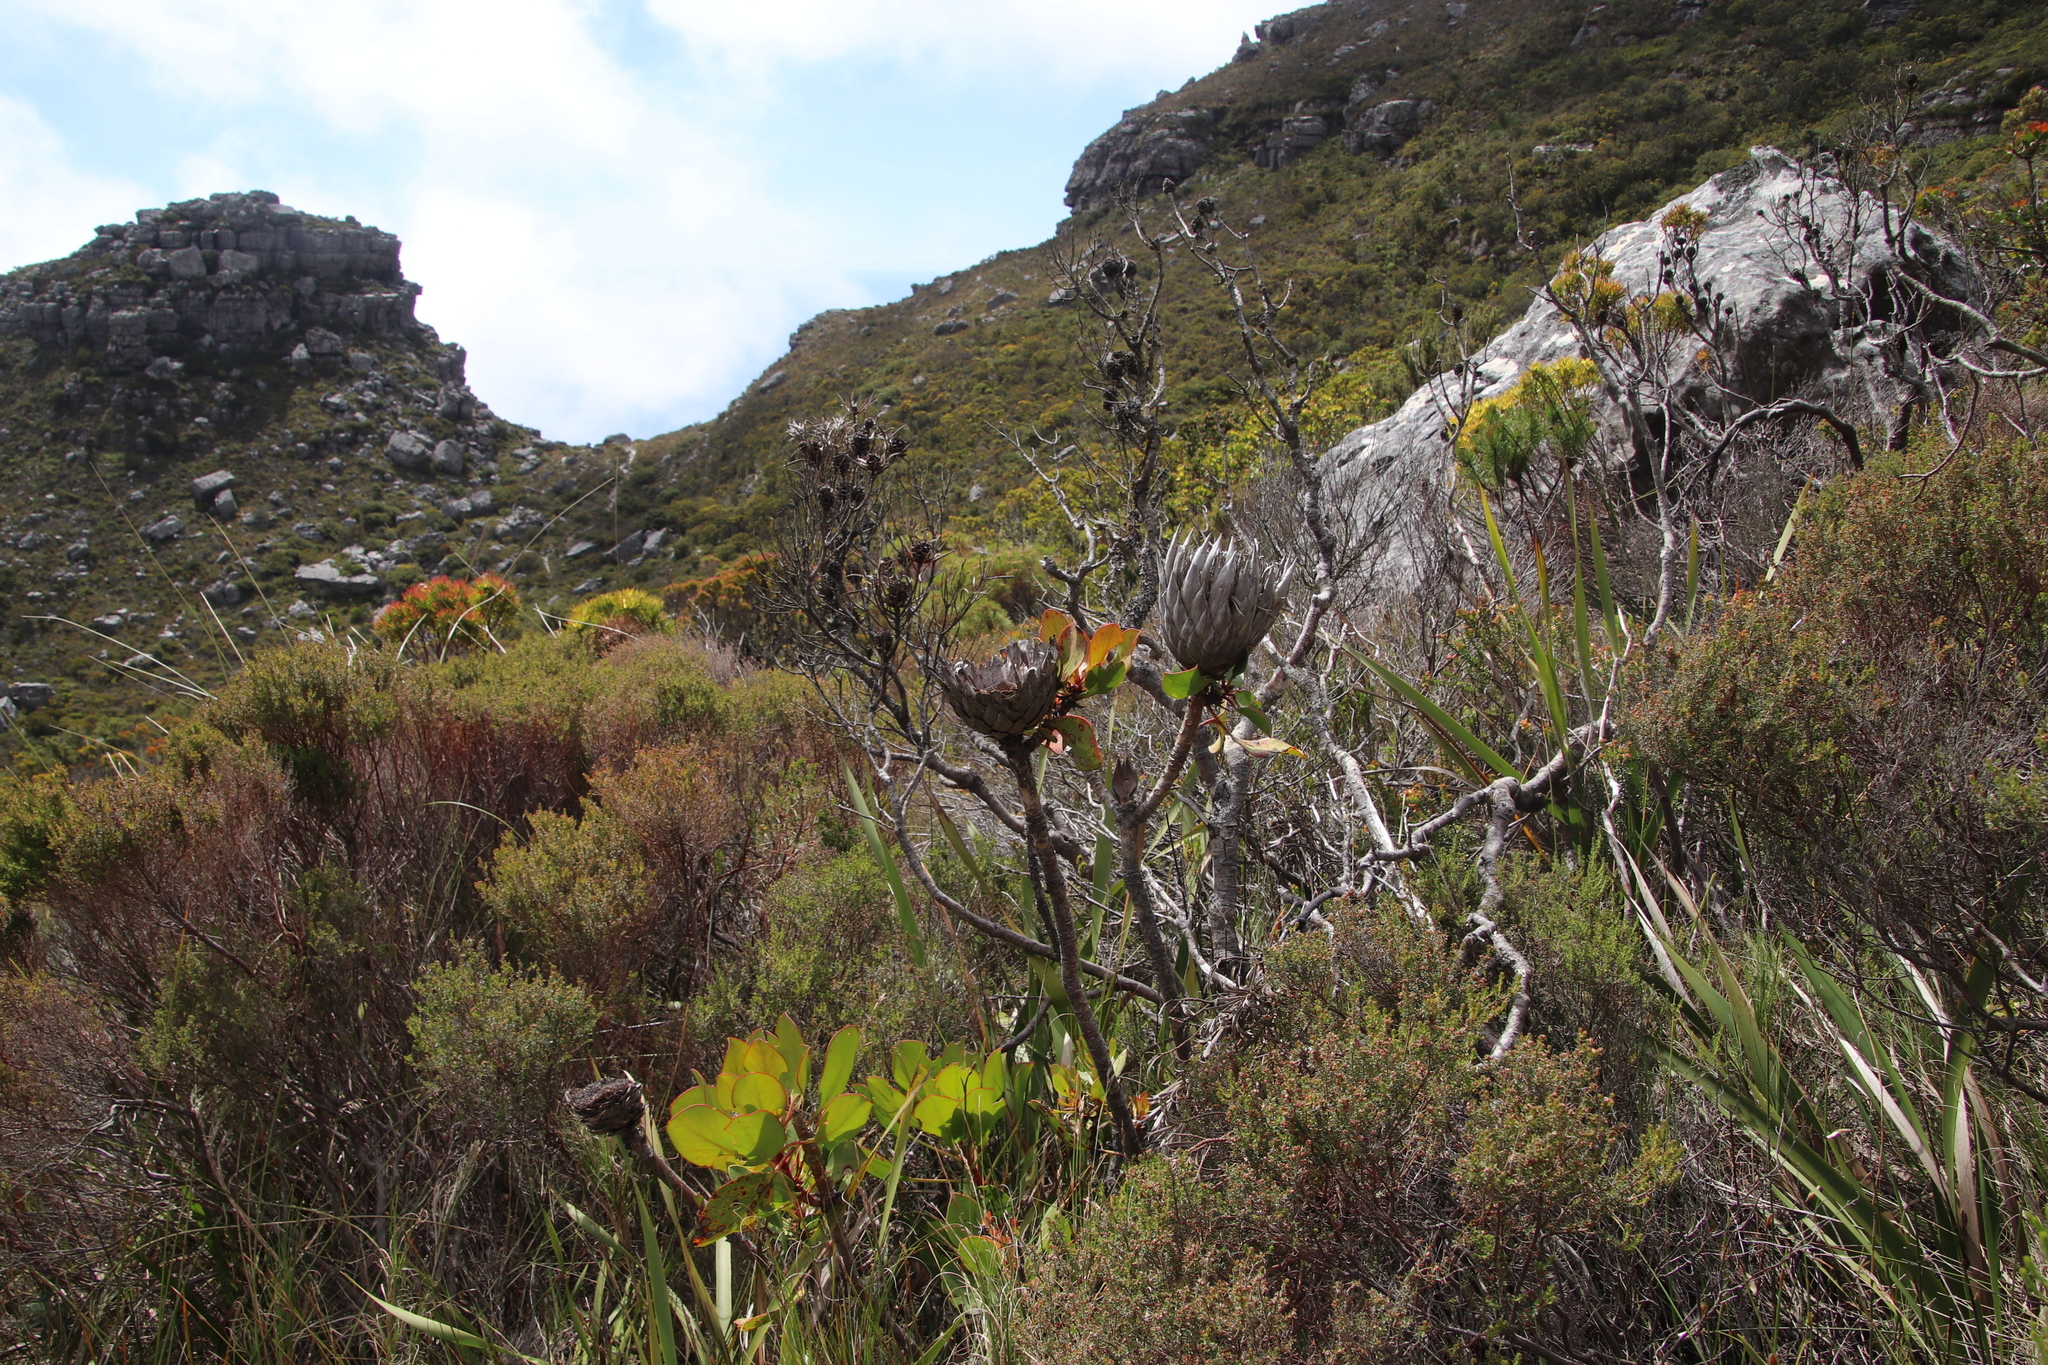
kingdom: Plantae
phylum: Tracheophyta
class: Magnoliopsida
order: Proteales
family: Proteaceae
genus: Protea
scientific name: Protea cynaroides
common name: King protea
